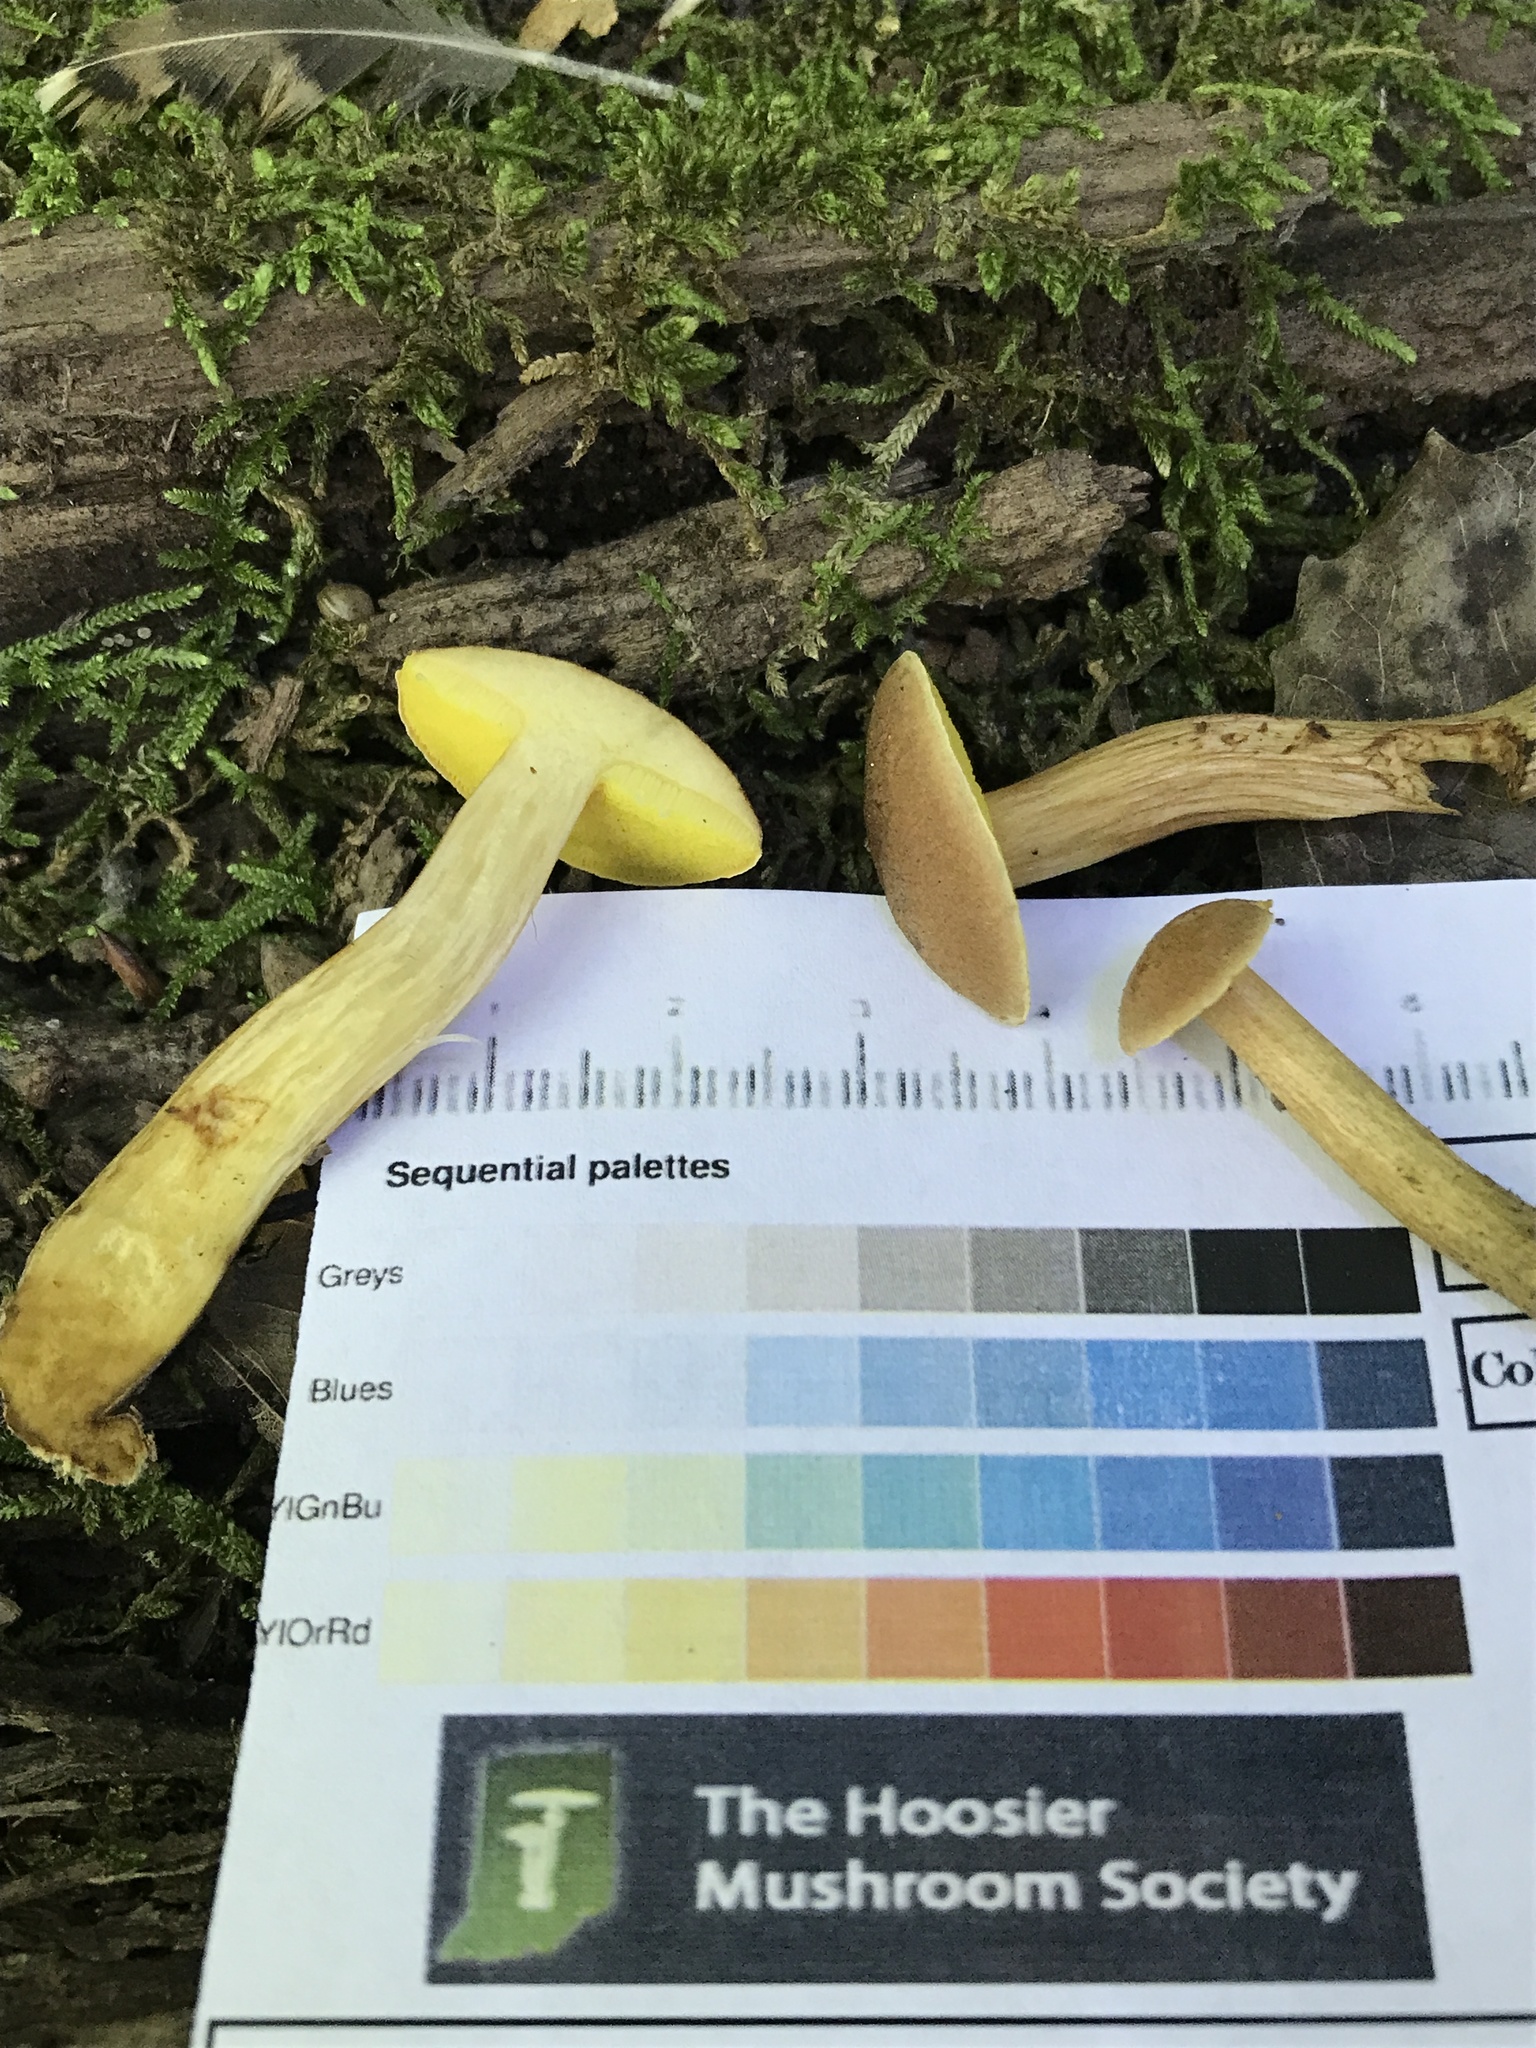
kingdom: Fungi
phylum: Basidiomycota
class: Agaricomycetes
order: Boletales
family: Boletaceae
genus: Aureoboletus
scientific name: Aureoboletus auriporus
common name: Sour gold-pored bolete
